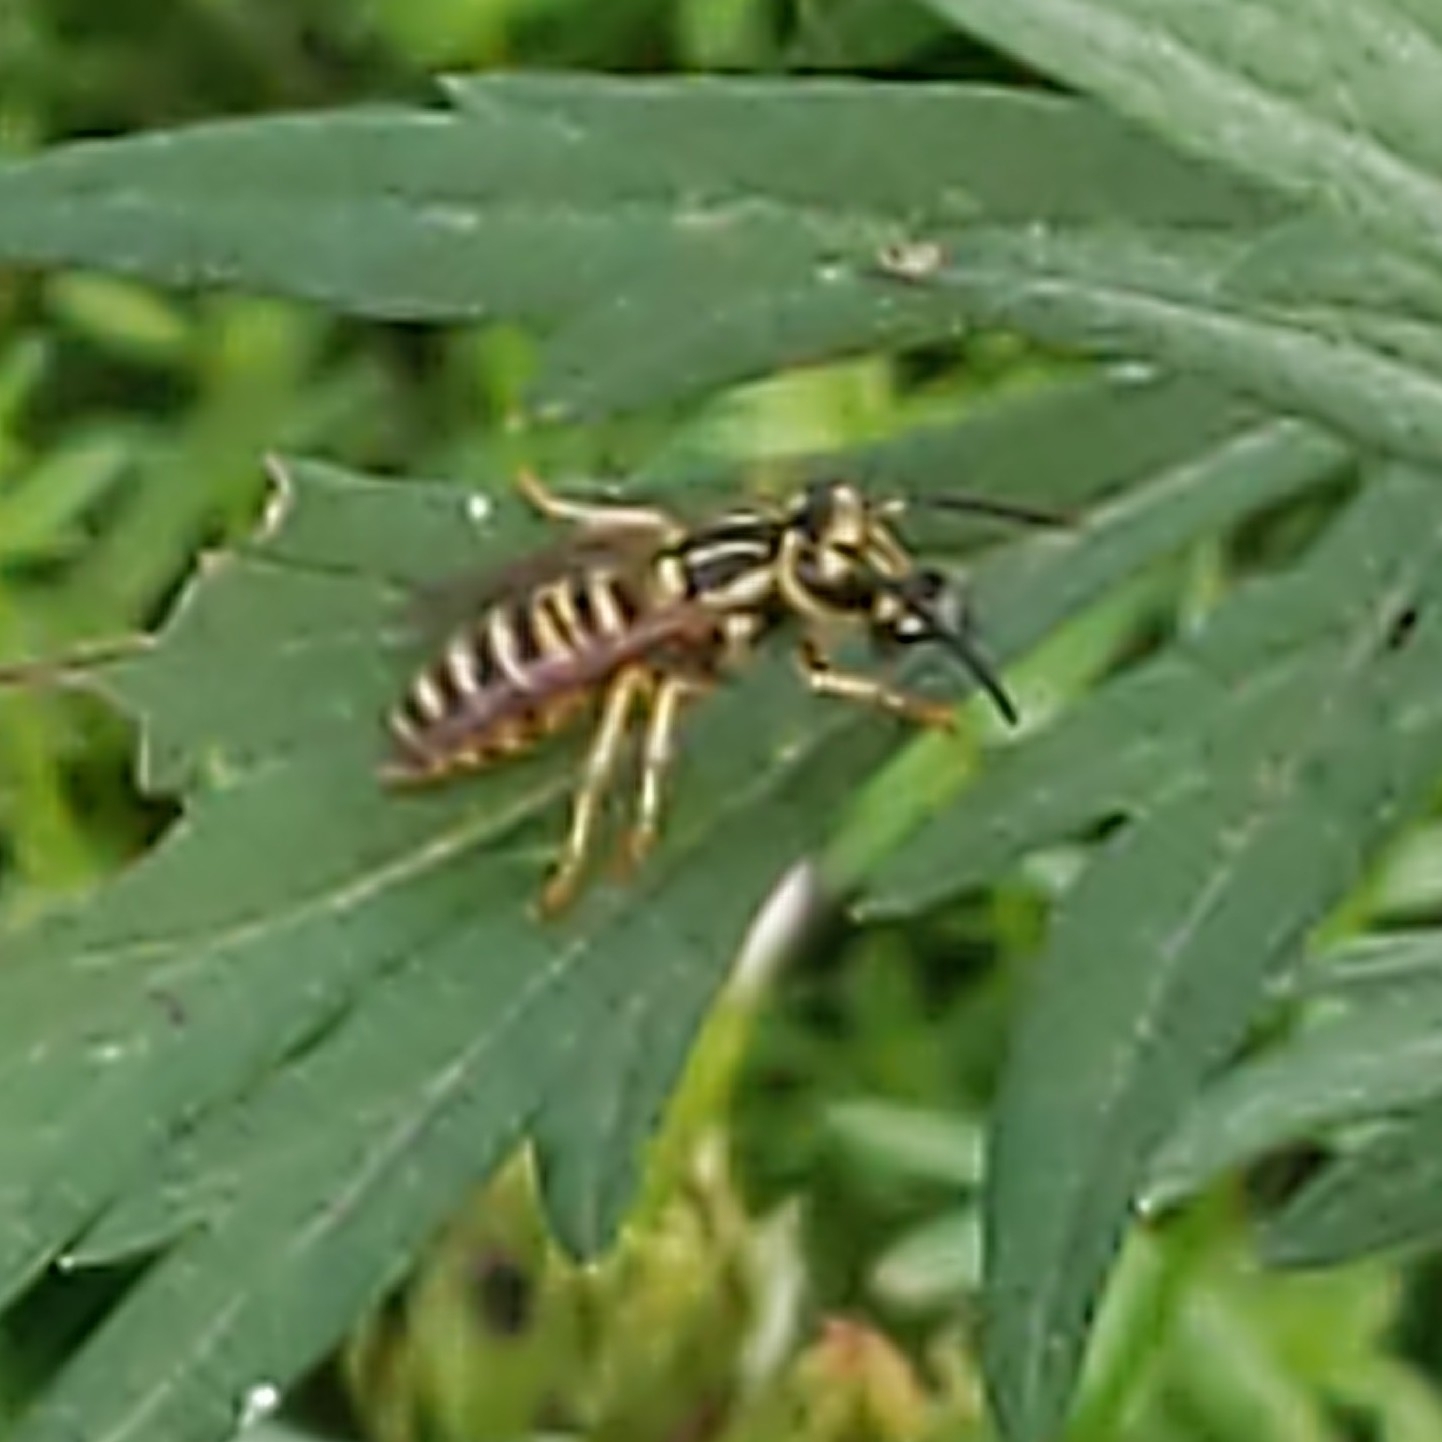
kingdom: Animalia
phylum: Arthropoda
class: Insecta
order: Hymenoptera
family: Vespidae
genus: Vespula
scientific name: Vespula squamosa
